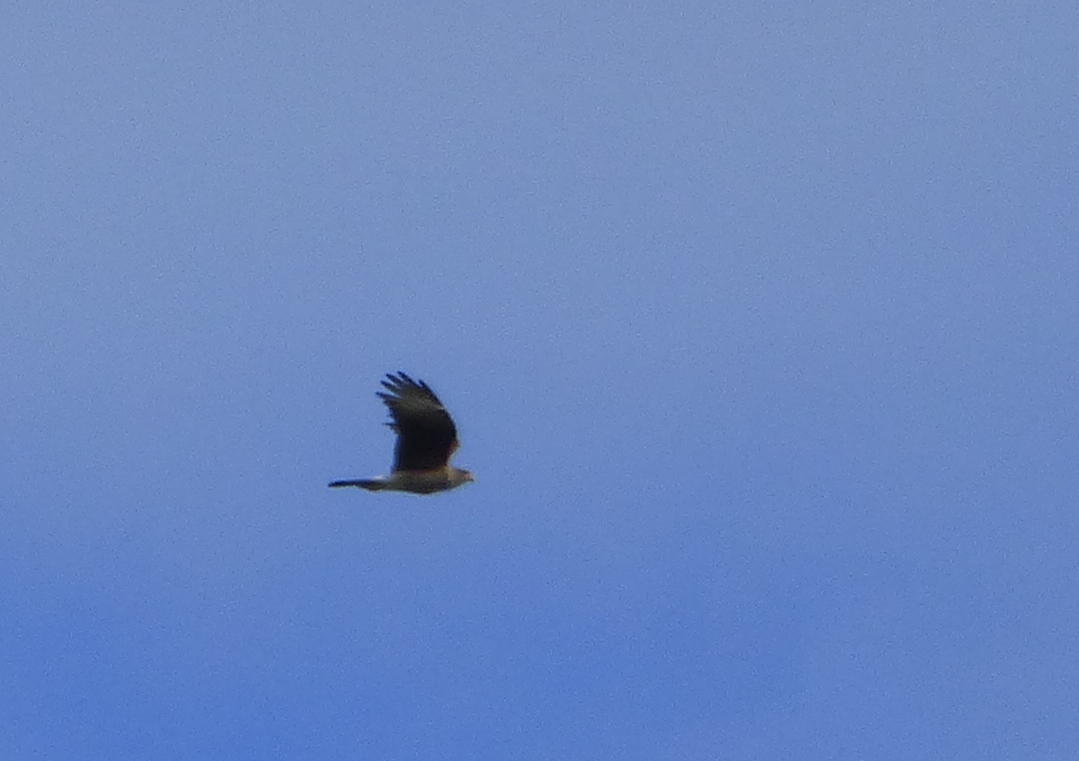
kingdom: Animalia
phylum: Chordata
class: Aves
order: Falconiformes
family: Falconidae
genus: Daptrius
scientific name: Daptrius
